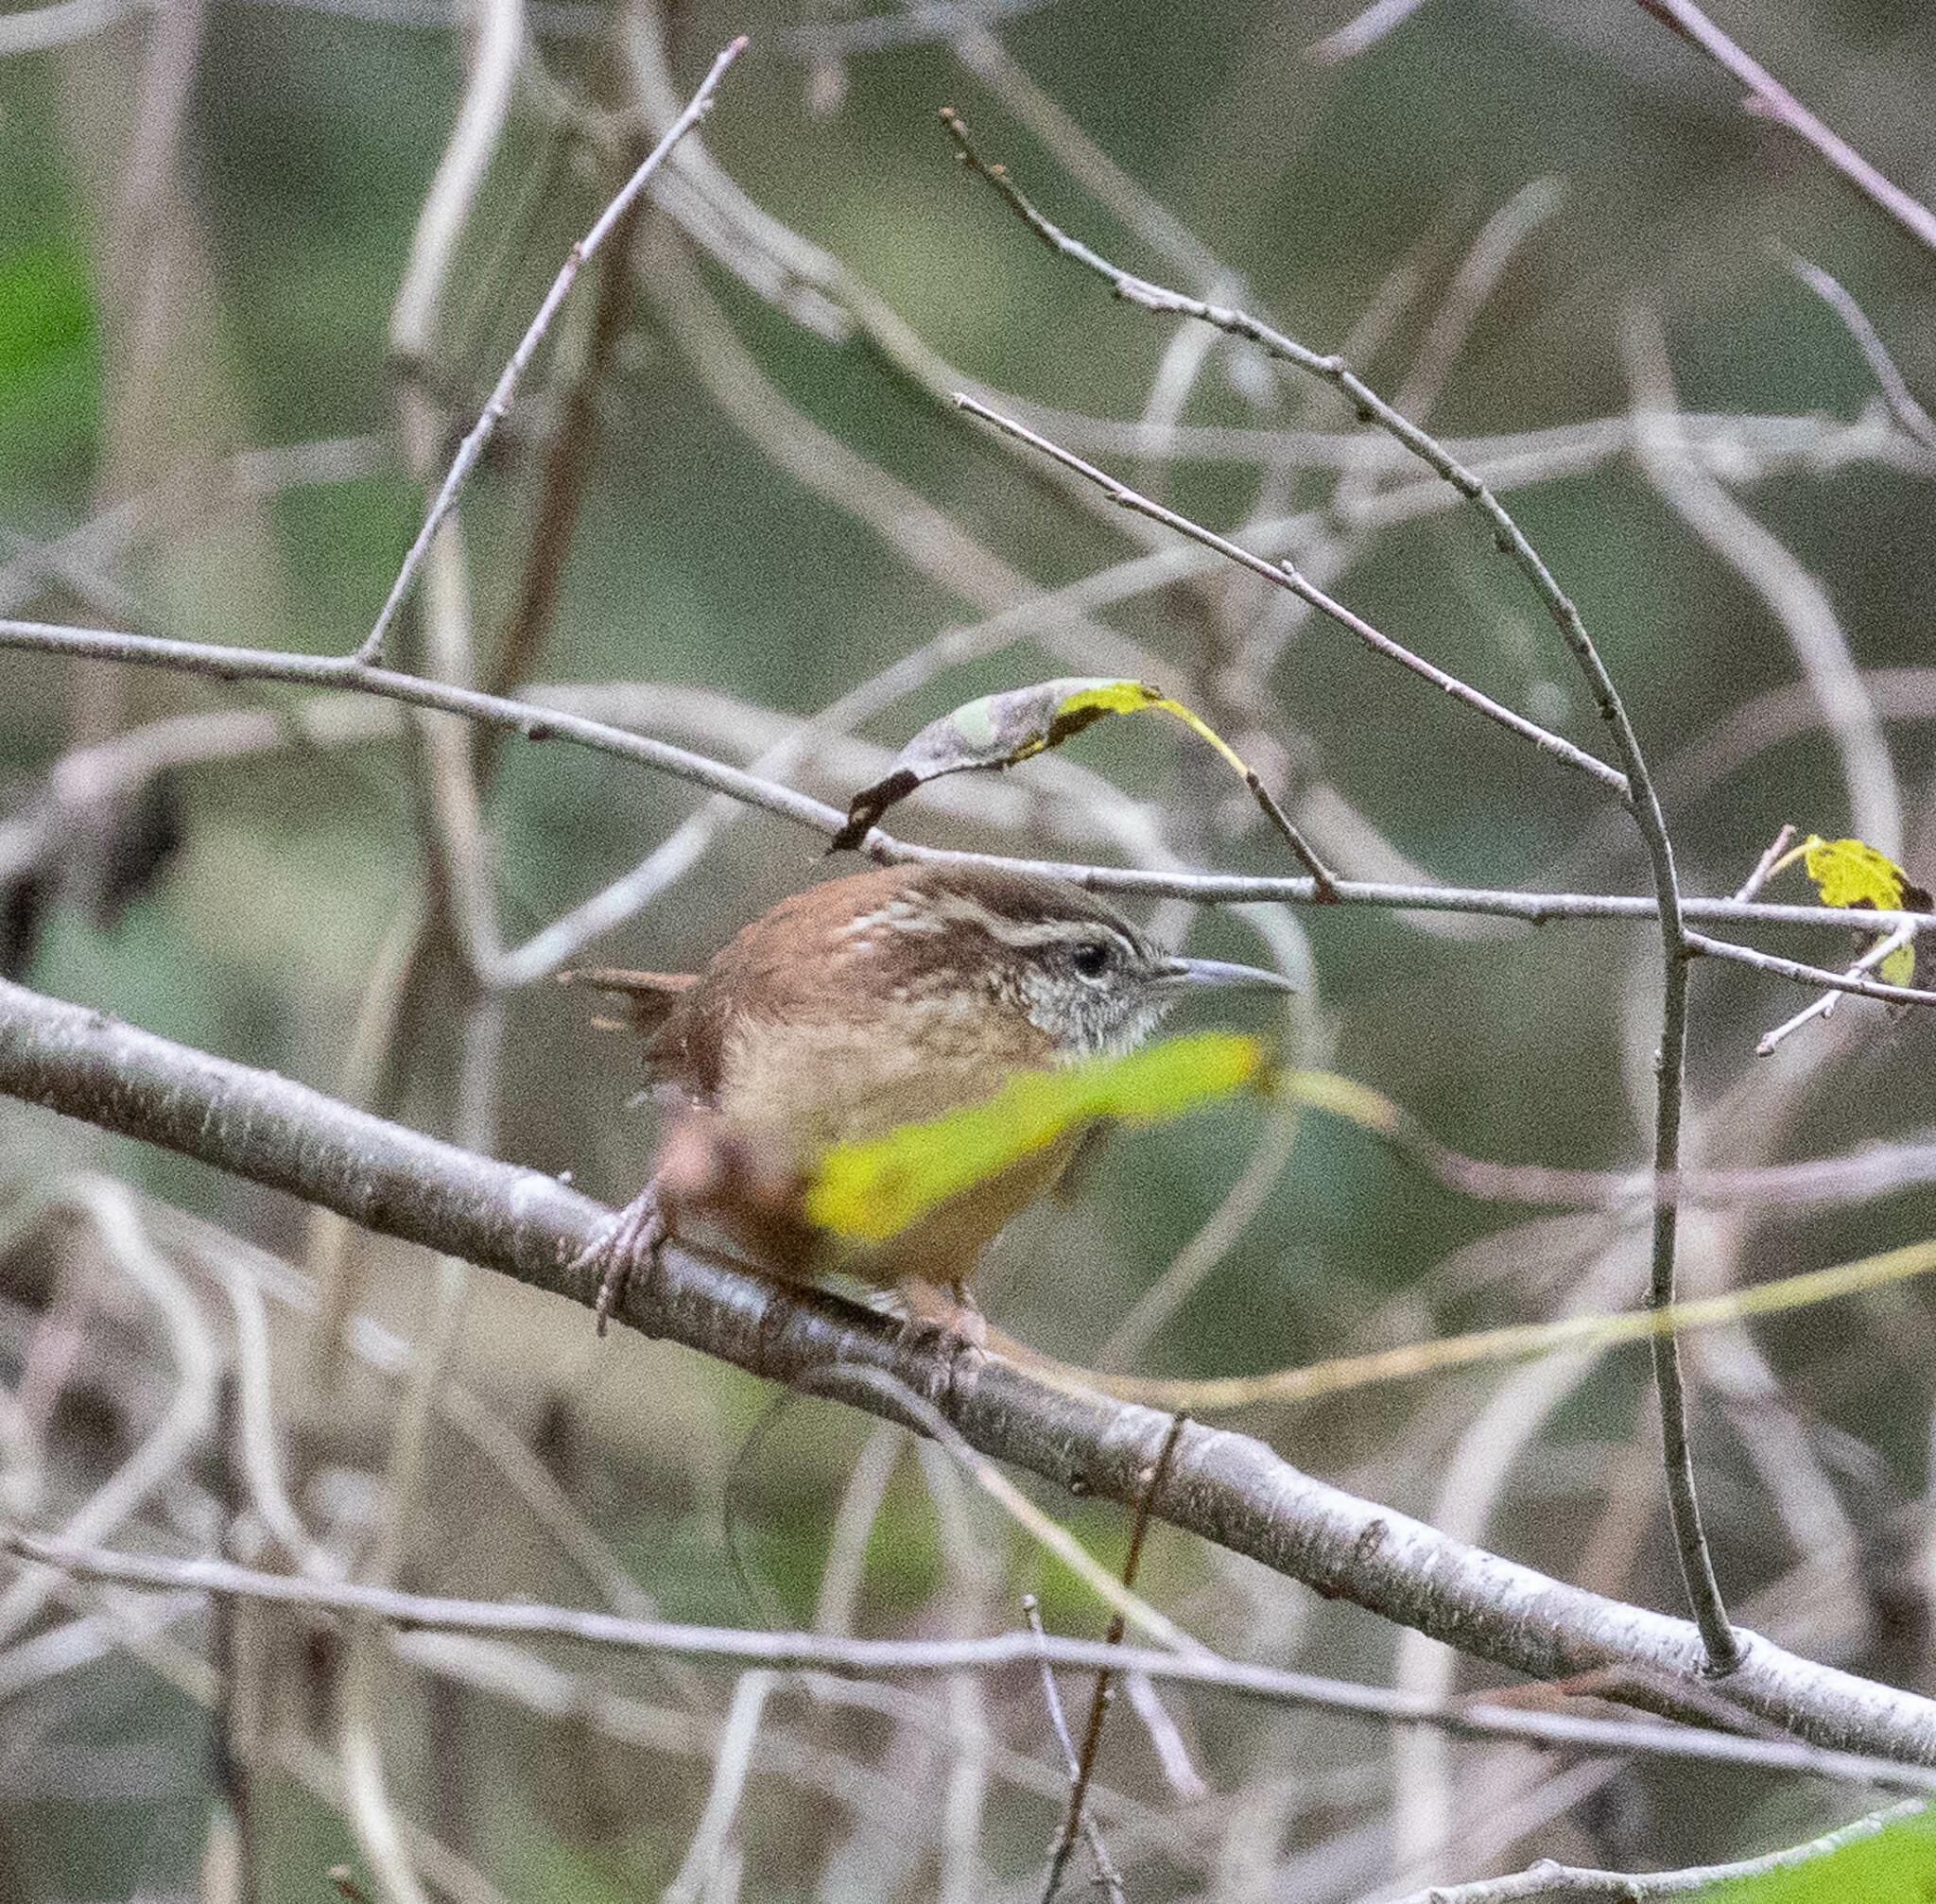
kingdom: Animalia
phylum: Chordata
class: Aves
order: Passeriformes
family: Troglodytidae
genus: Thryothorus
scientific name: Thryothorus ludovicianus
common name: Carolina wren
